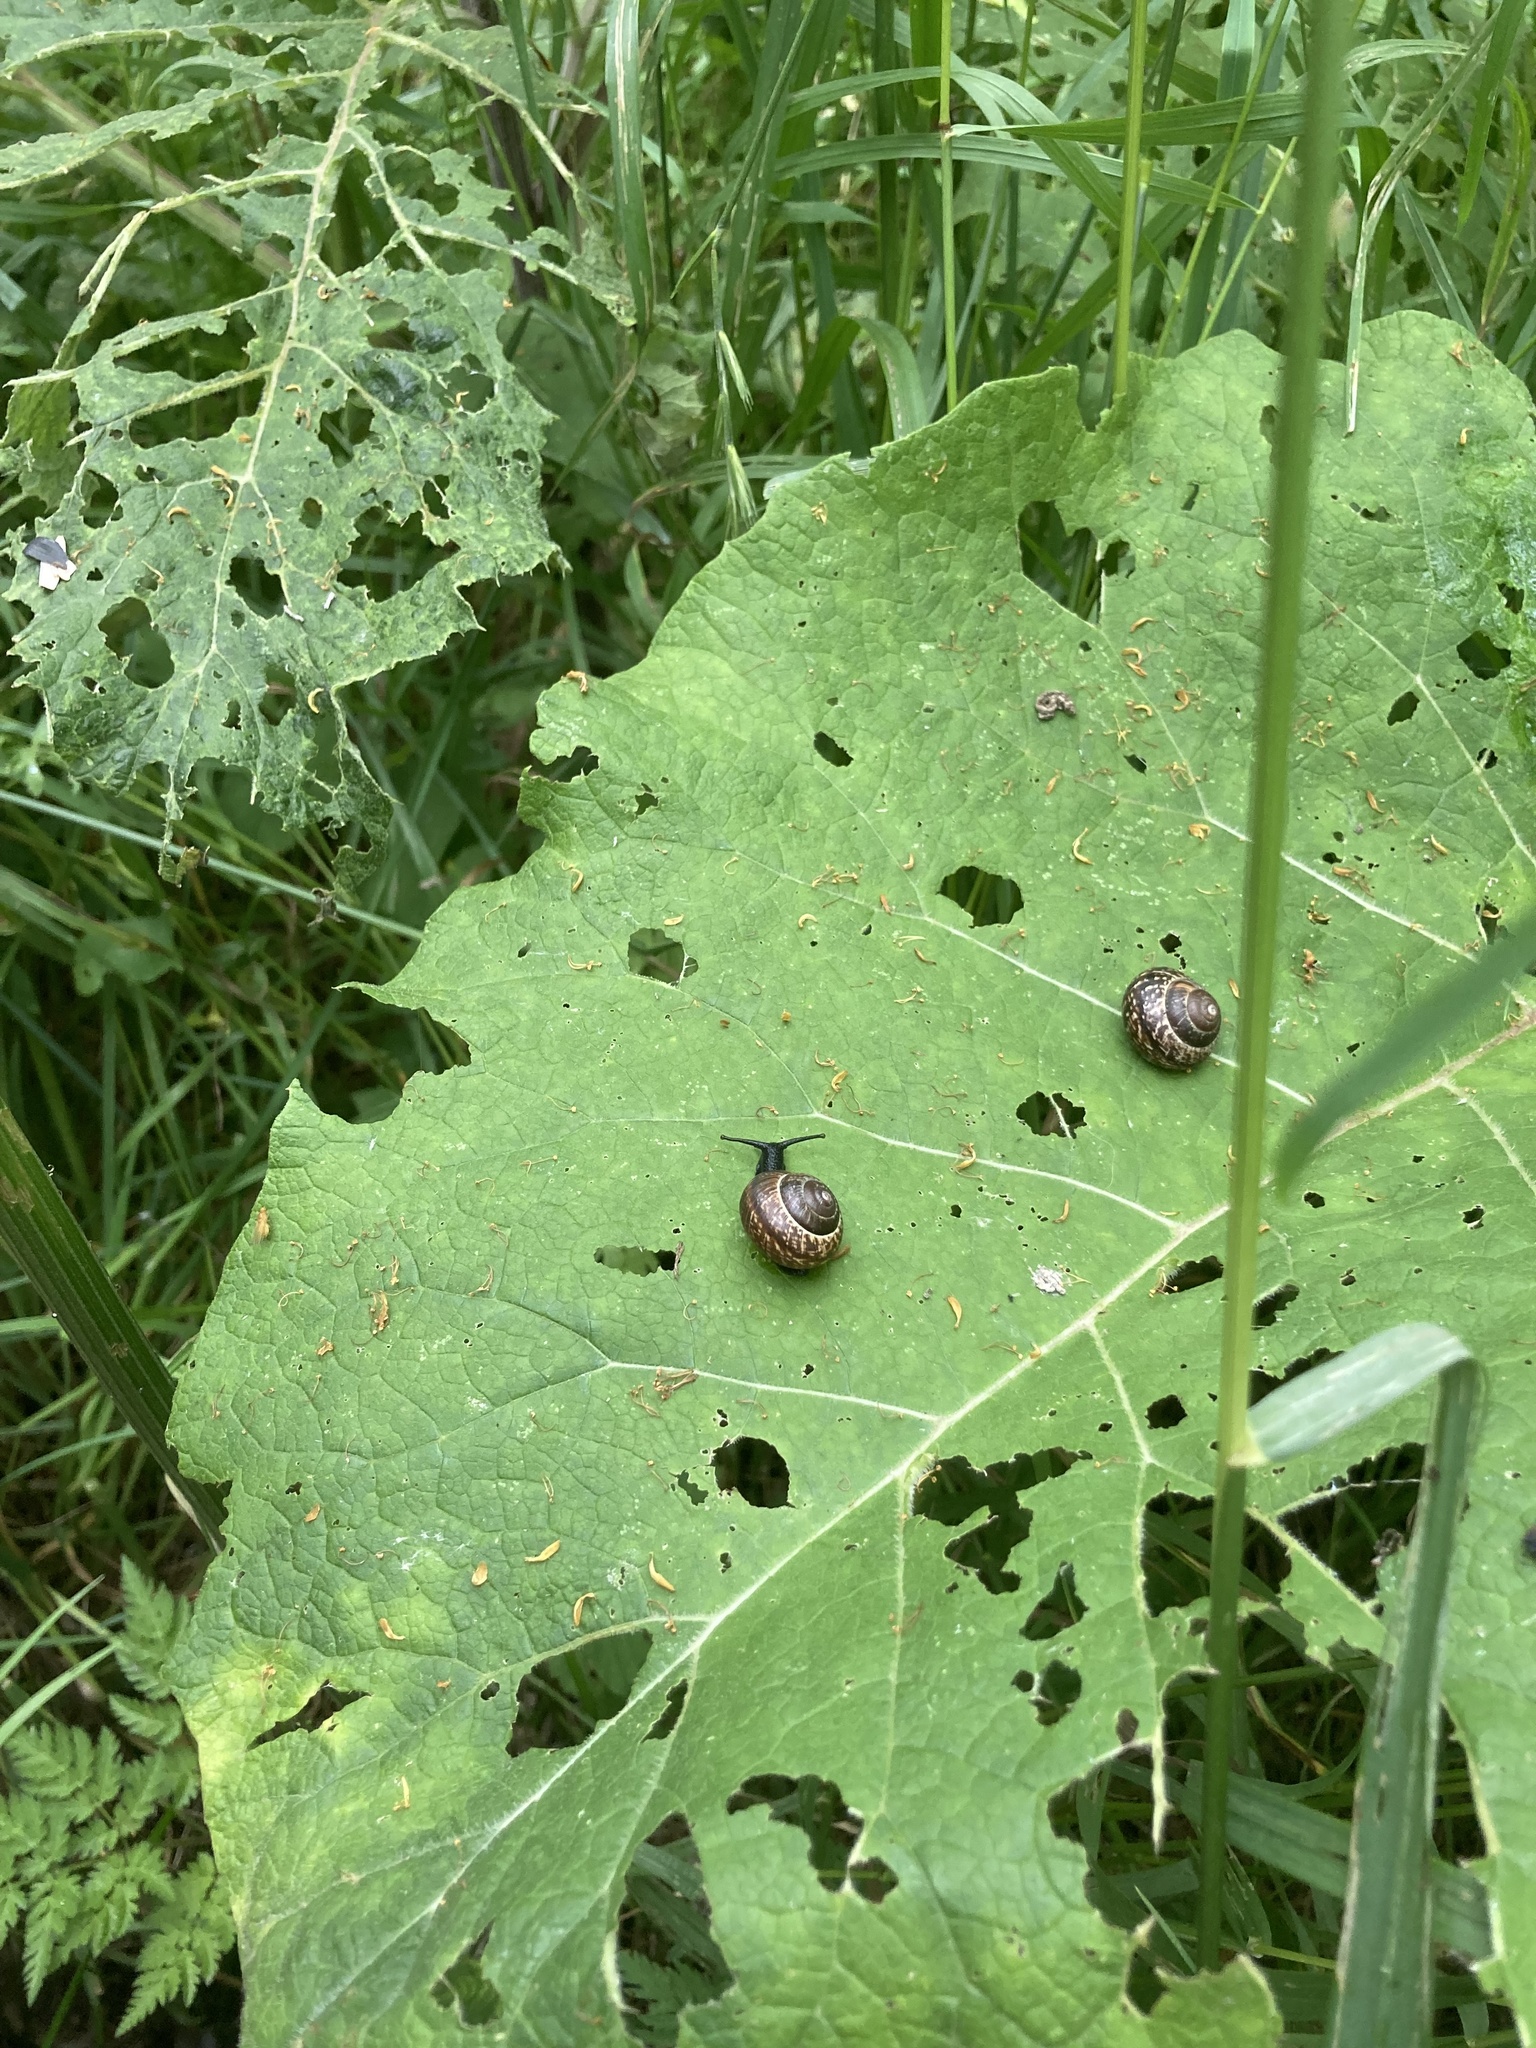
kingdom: Animalia
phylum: Mollusca
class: Gastropoda
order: Stylommatophora
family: Helicidae
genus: Arianta
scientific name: Arianta arbustorum
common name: Copse snail
